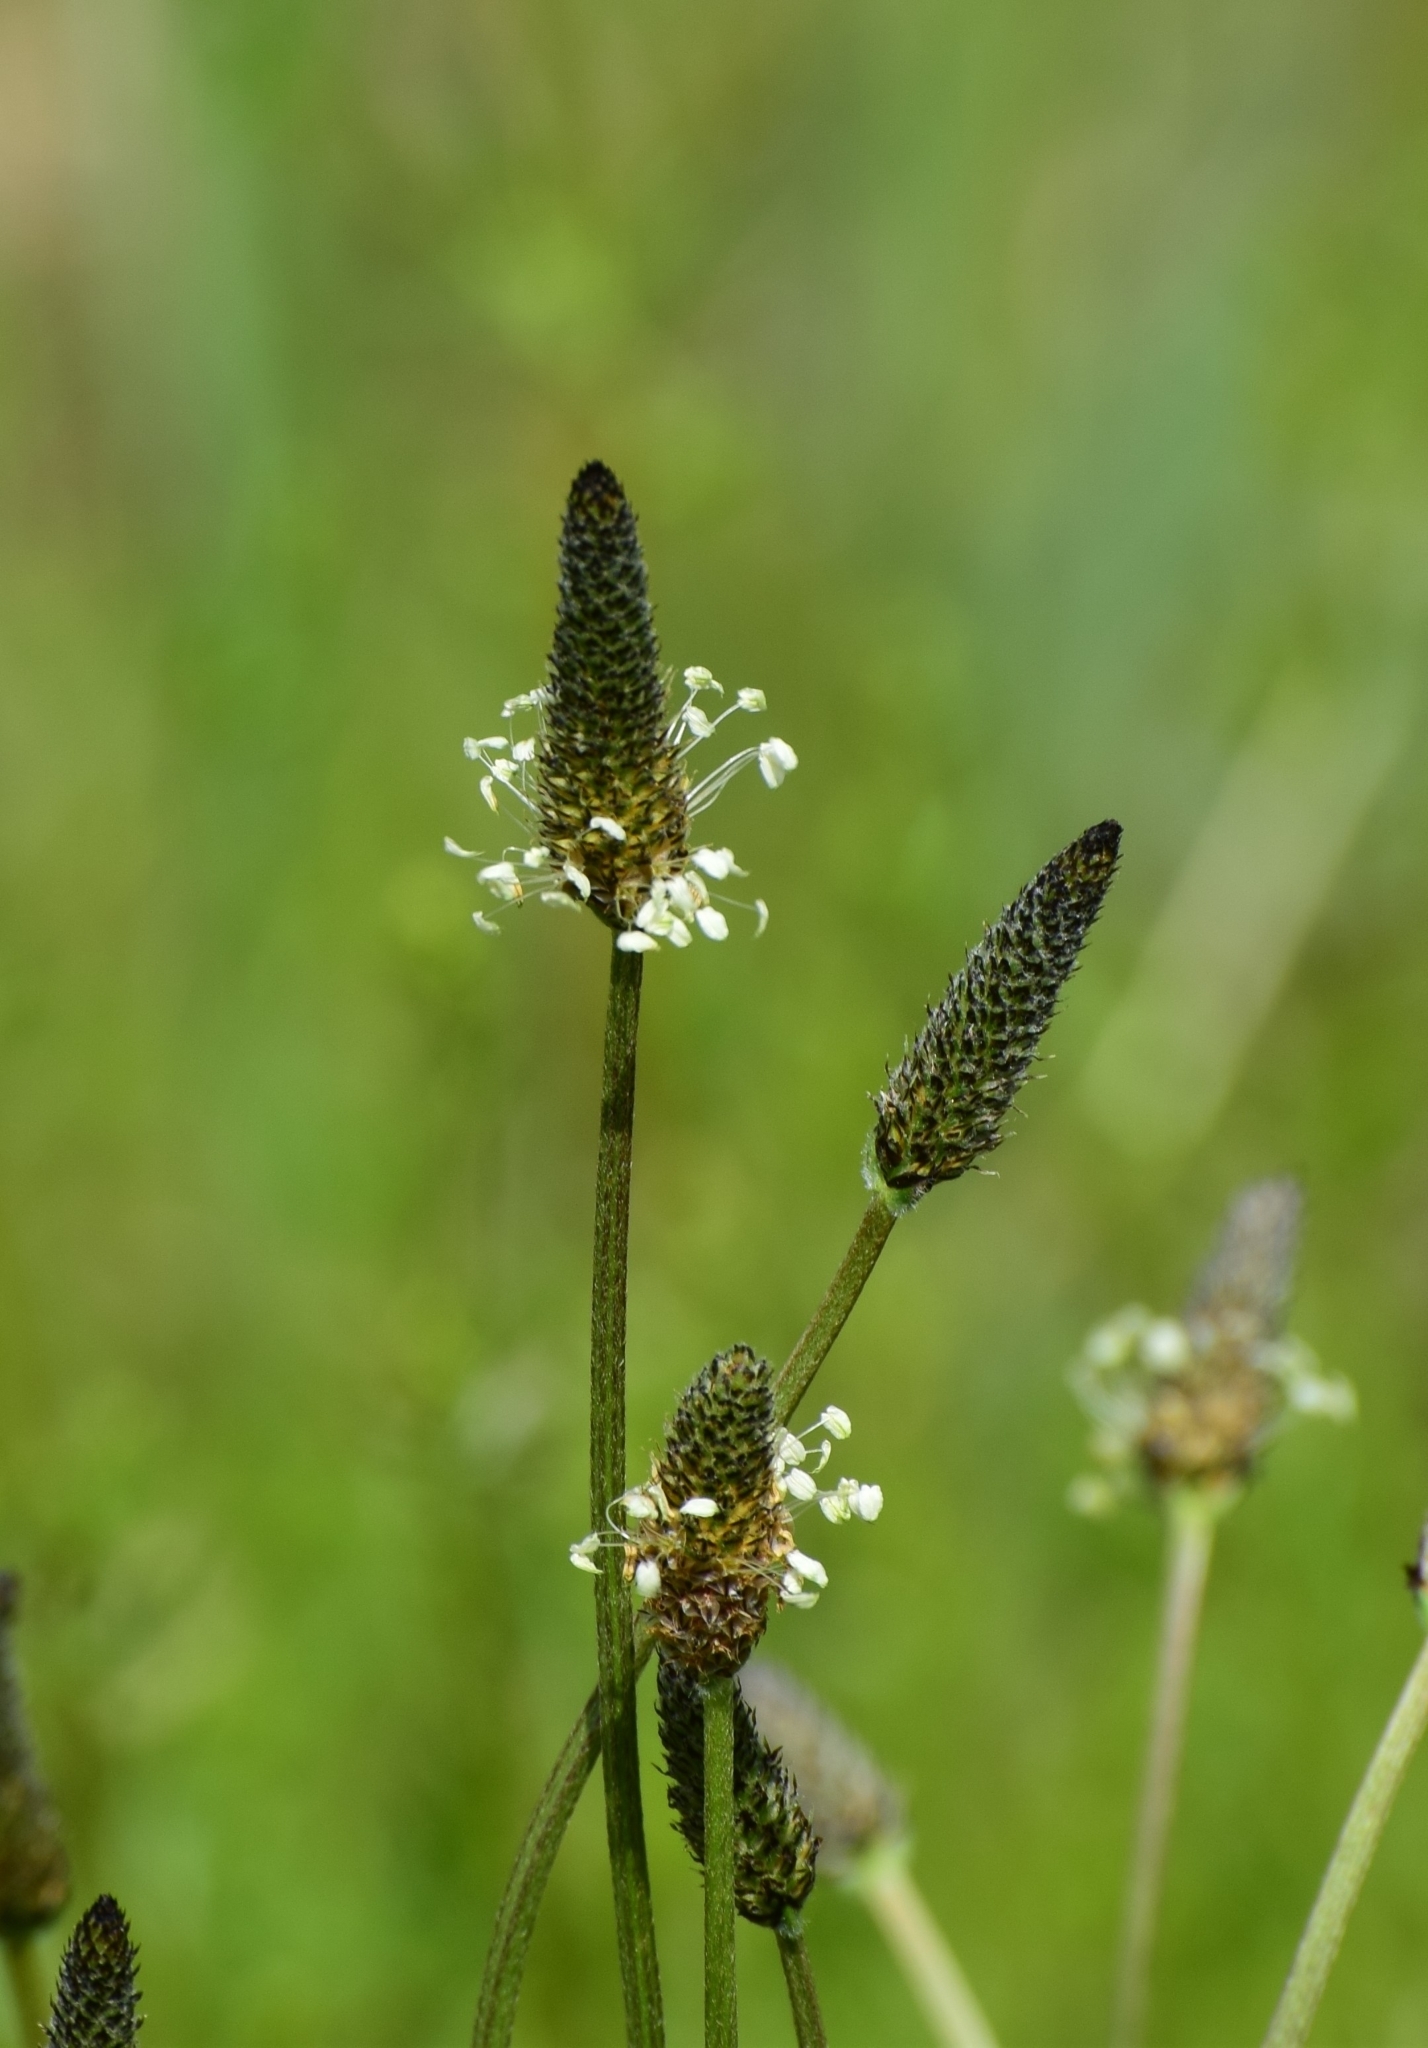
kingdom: Plantae
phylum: Tracheophyta
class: Magnoliopsida
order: Lamiales
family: Plantaginaceae
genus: Plantago
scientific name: Plantago lanceolata
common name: Ribwort plantain
